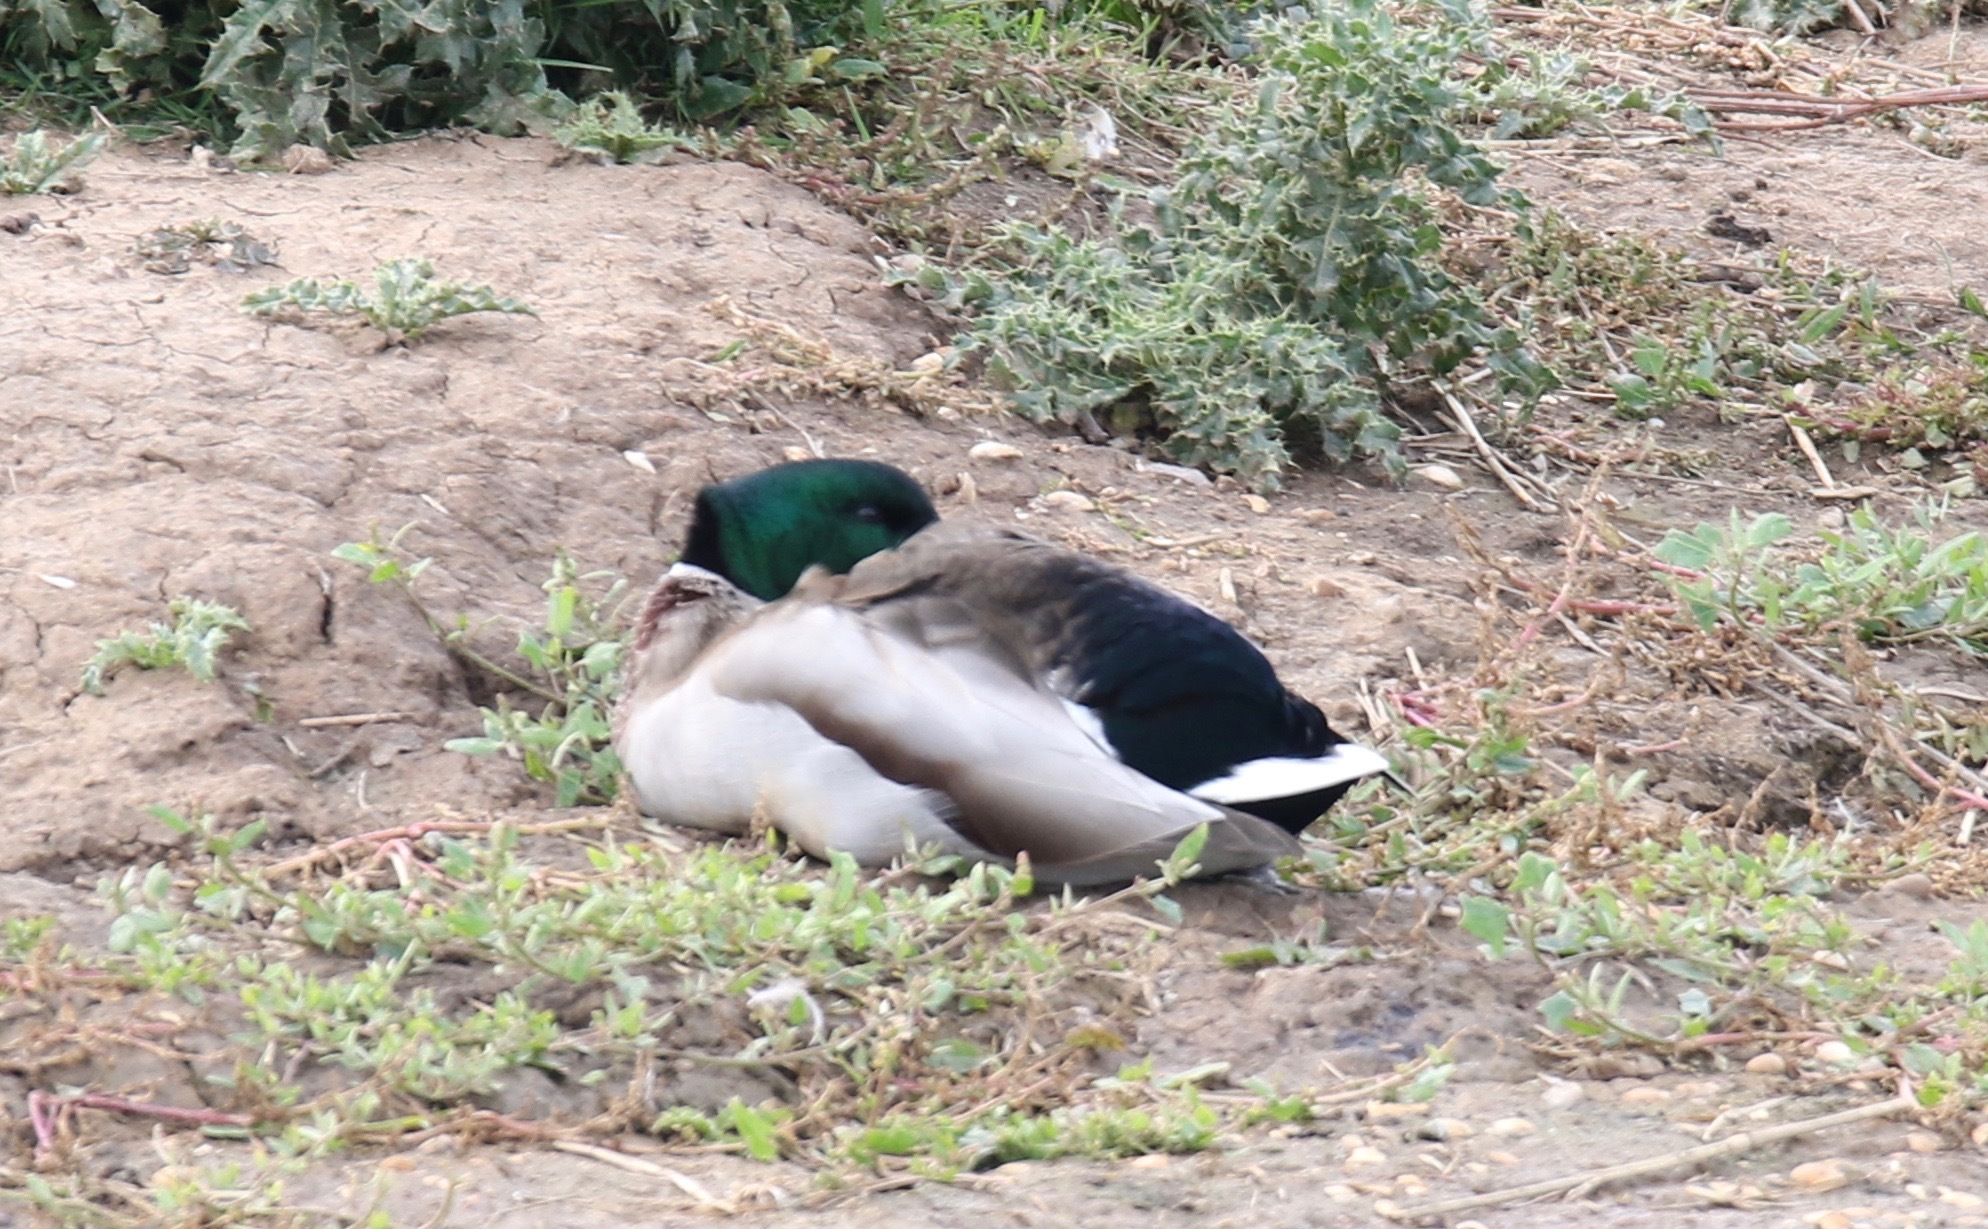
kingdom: Animalia
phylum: Chordata
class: Aves
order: Anseriformes
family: Anatidae
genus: Anas
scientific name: Anas platyrhynchos
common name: Mallard
